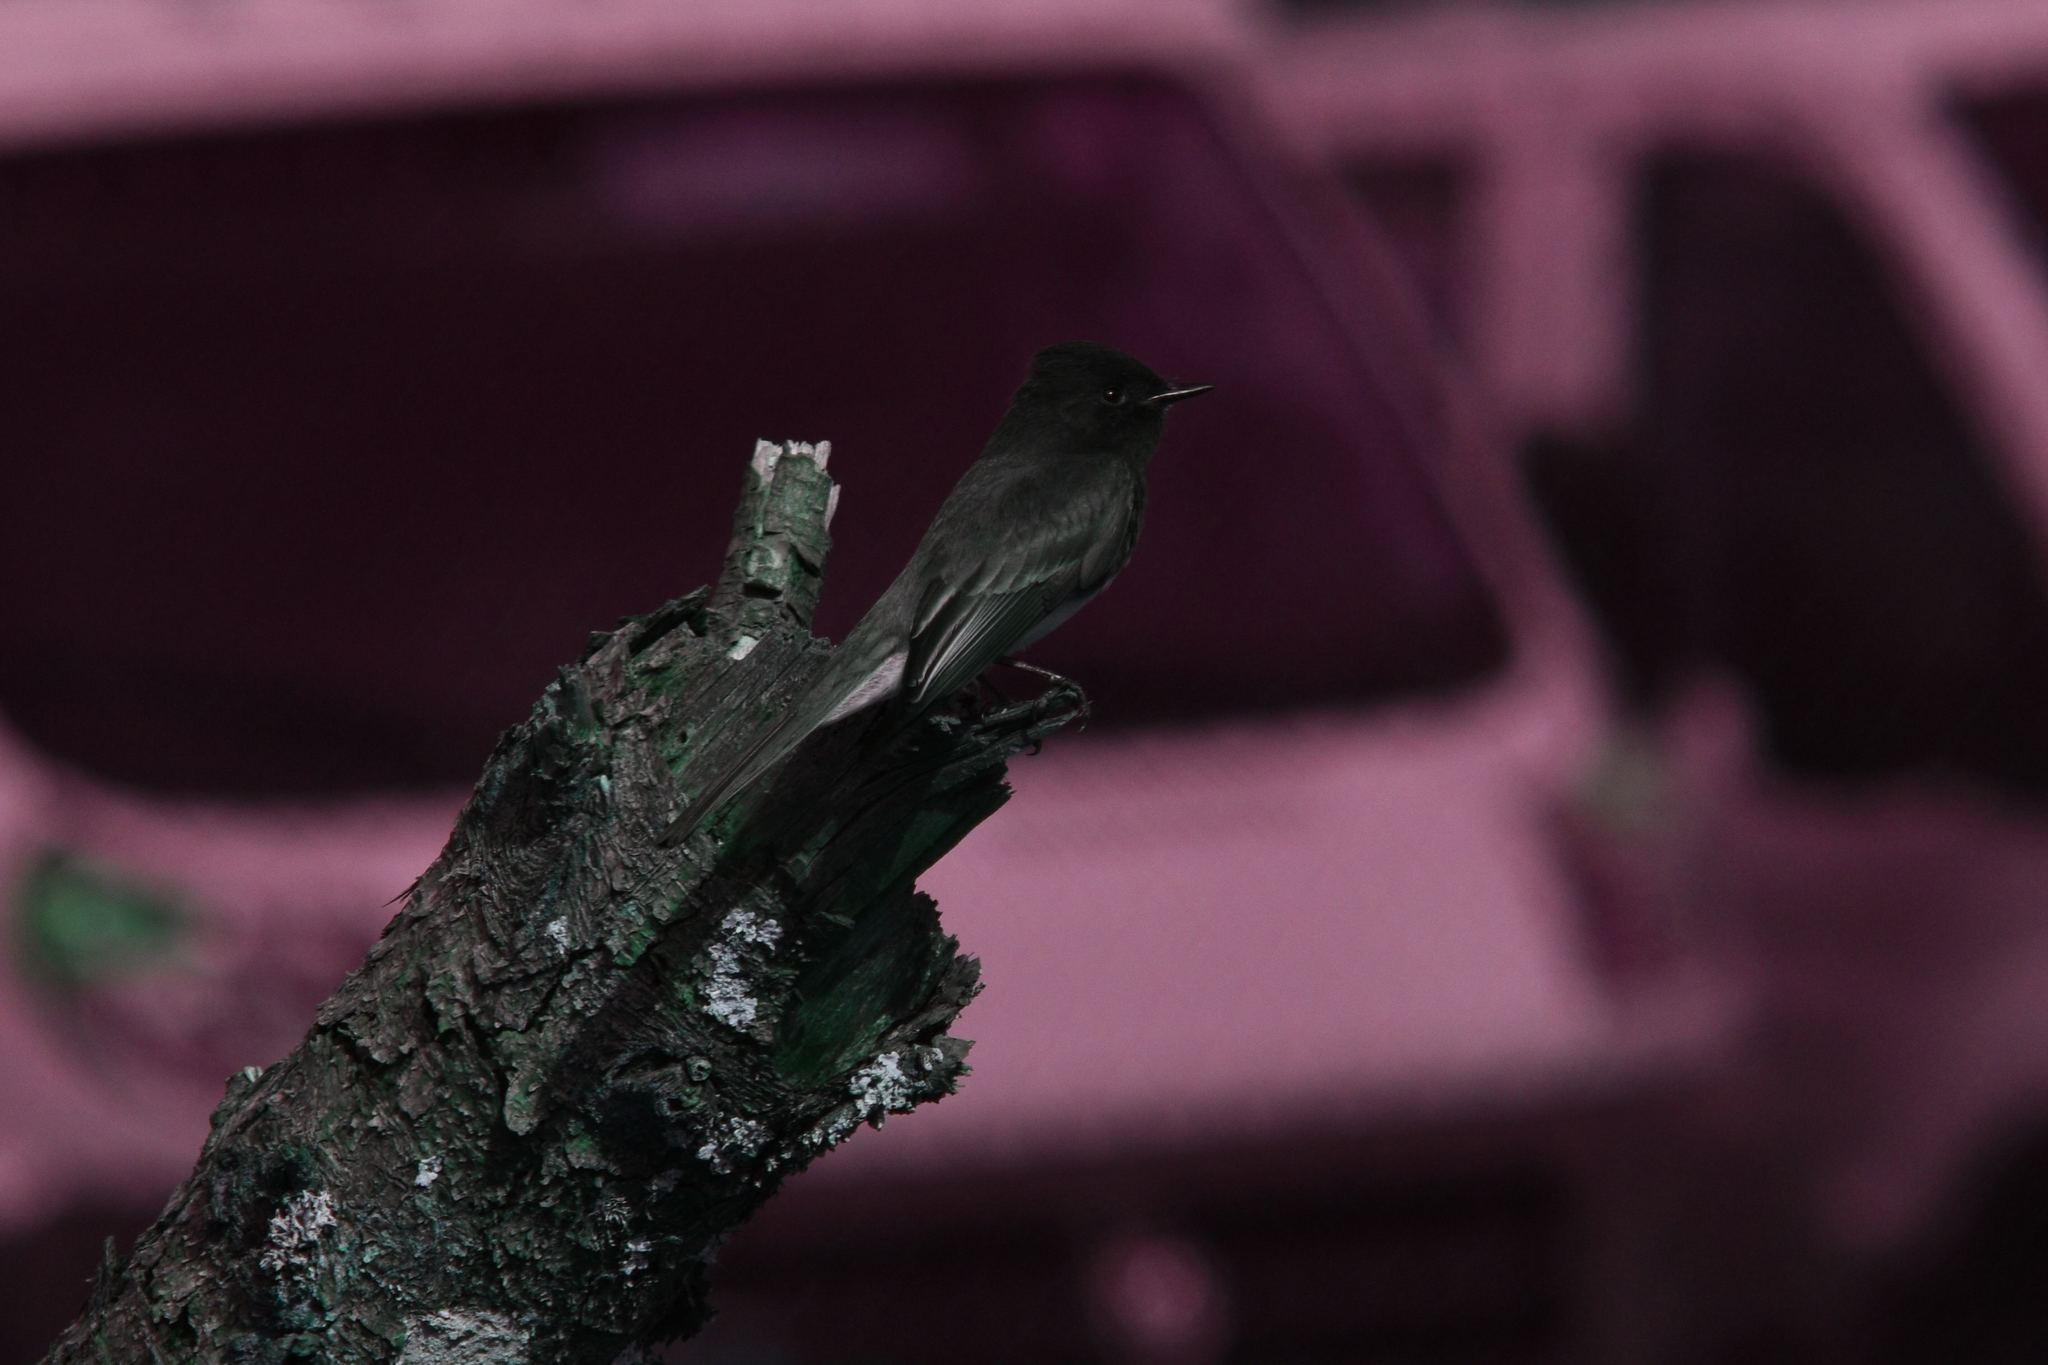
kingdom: Animalia
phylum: Chordata
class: Aves
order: Passeriformes
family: Tyrannidae
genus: Sayornis
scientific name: Sayornis nigricans
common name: Black phoebe
